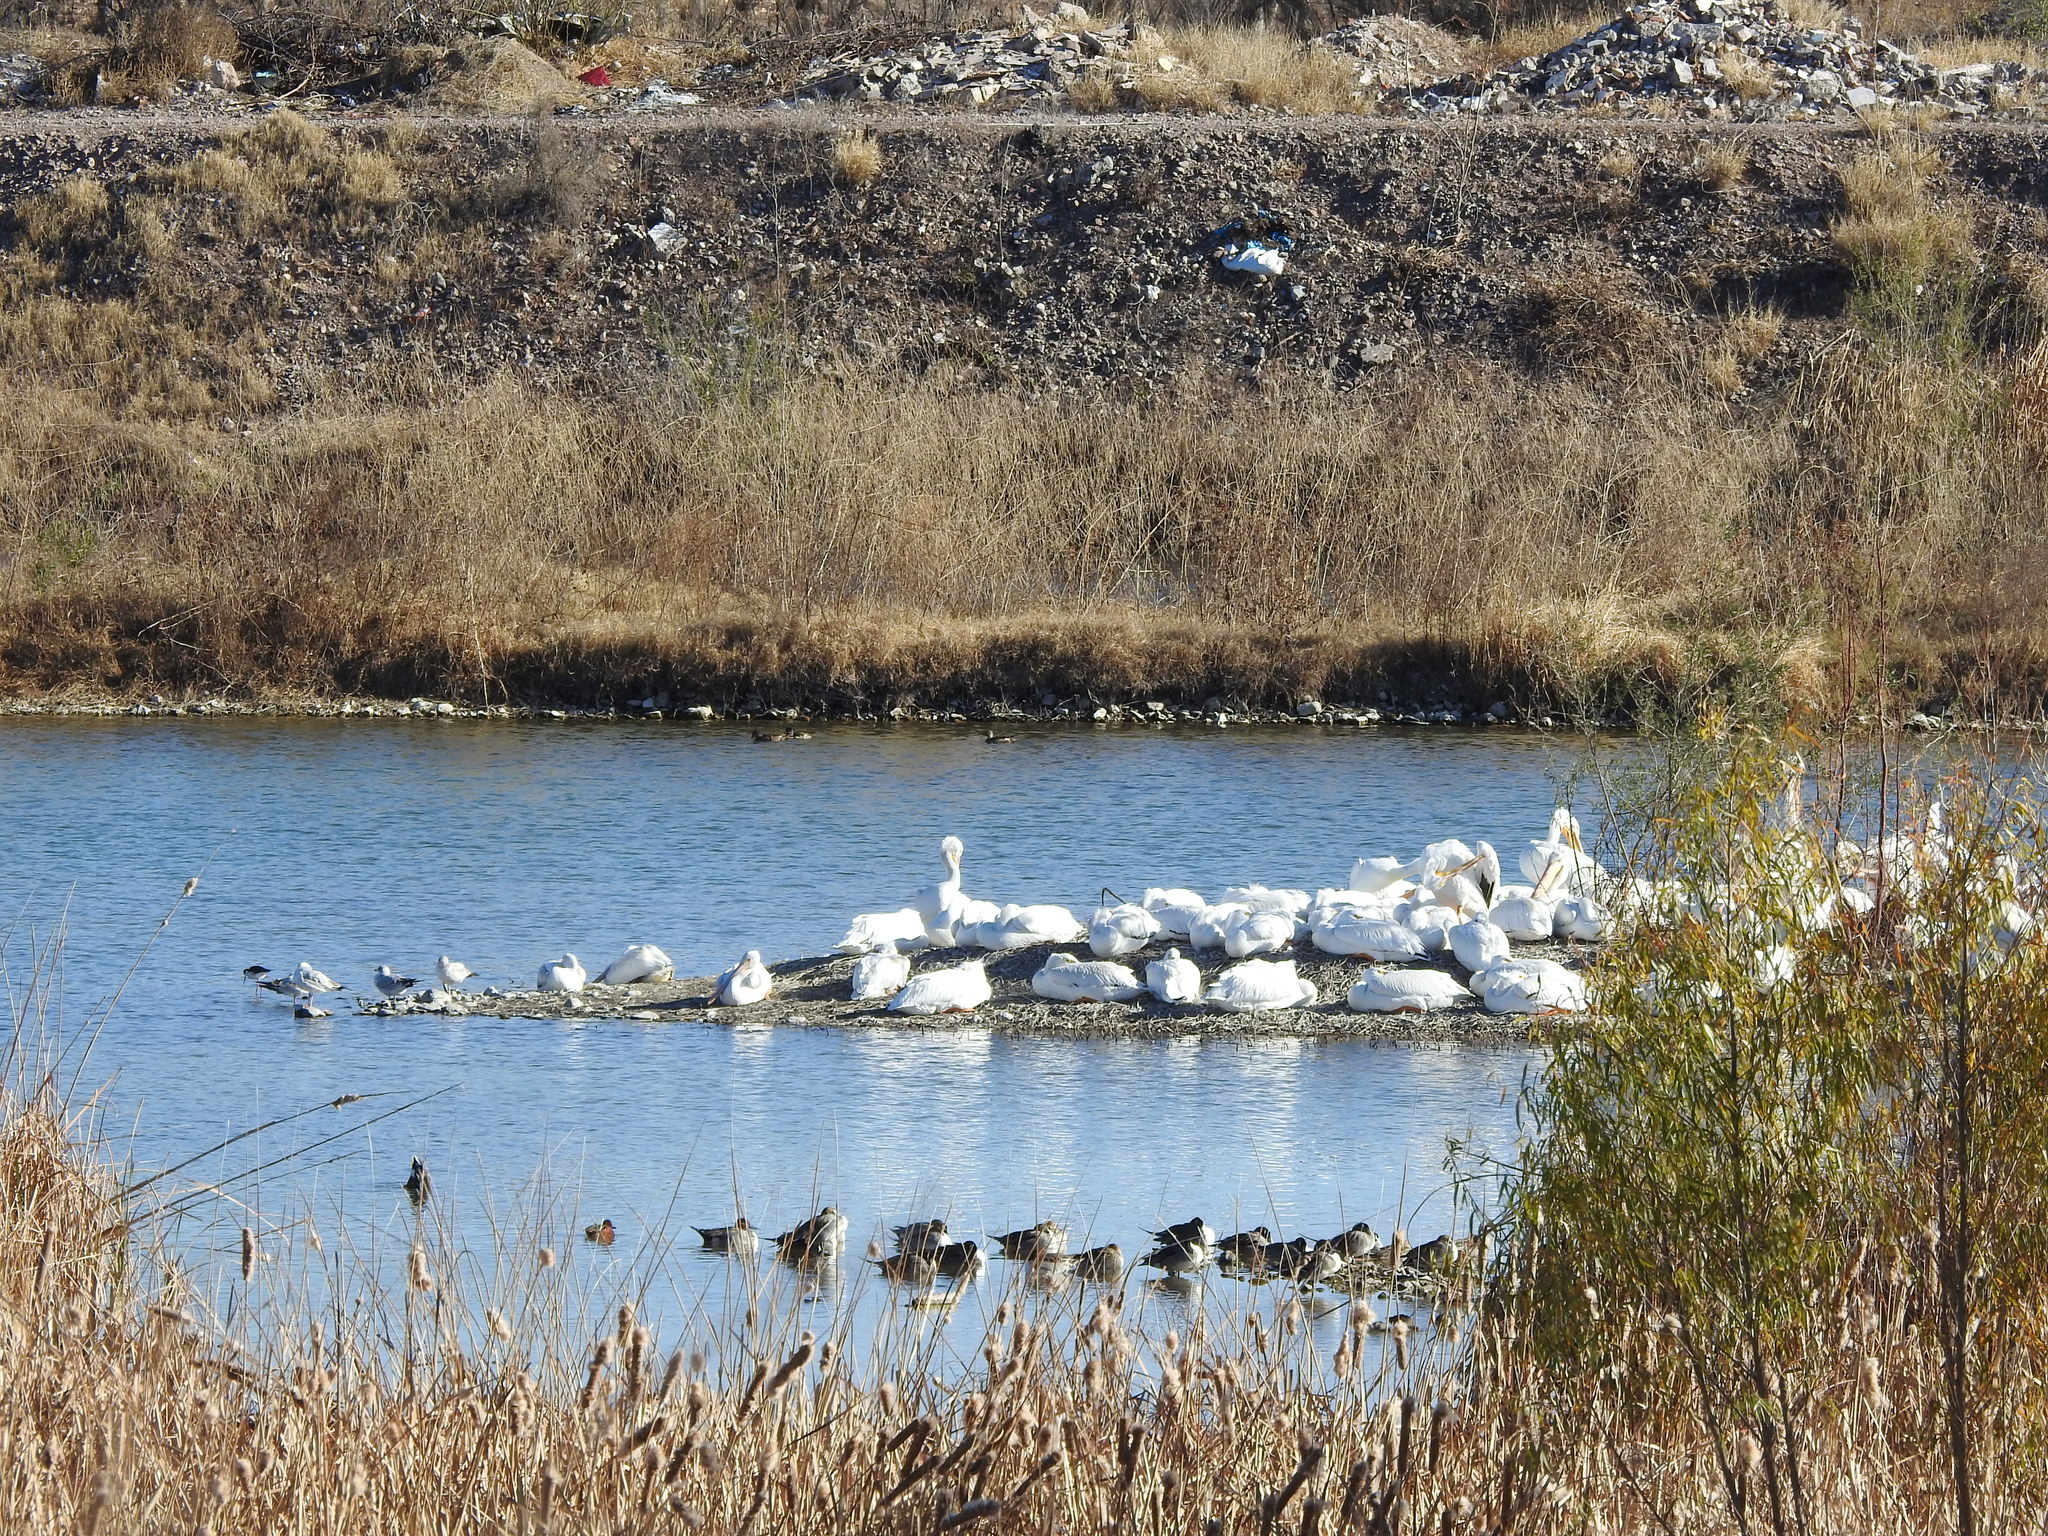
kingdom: Animalia
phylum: Chordata
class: Aves
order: Pelecaniformes
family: Pelecanidae
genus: Pelecanus
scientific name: Pelecanus erythrorhynchos
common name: American white pelican
